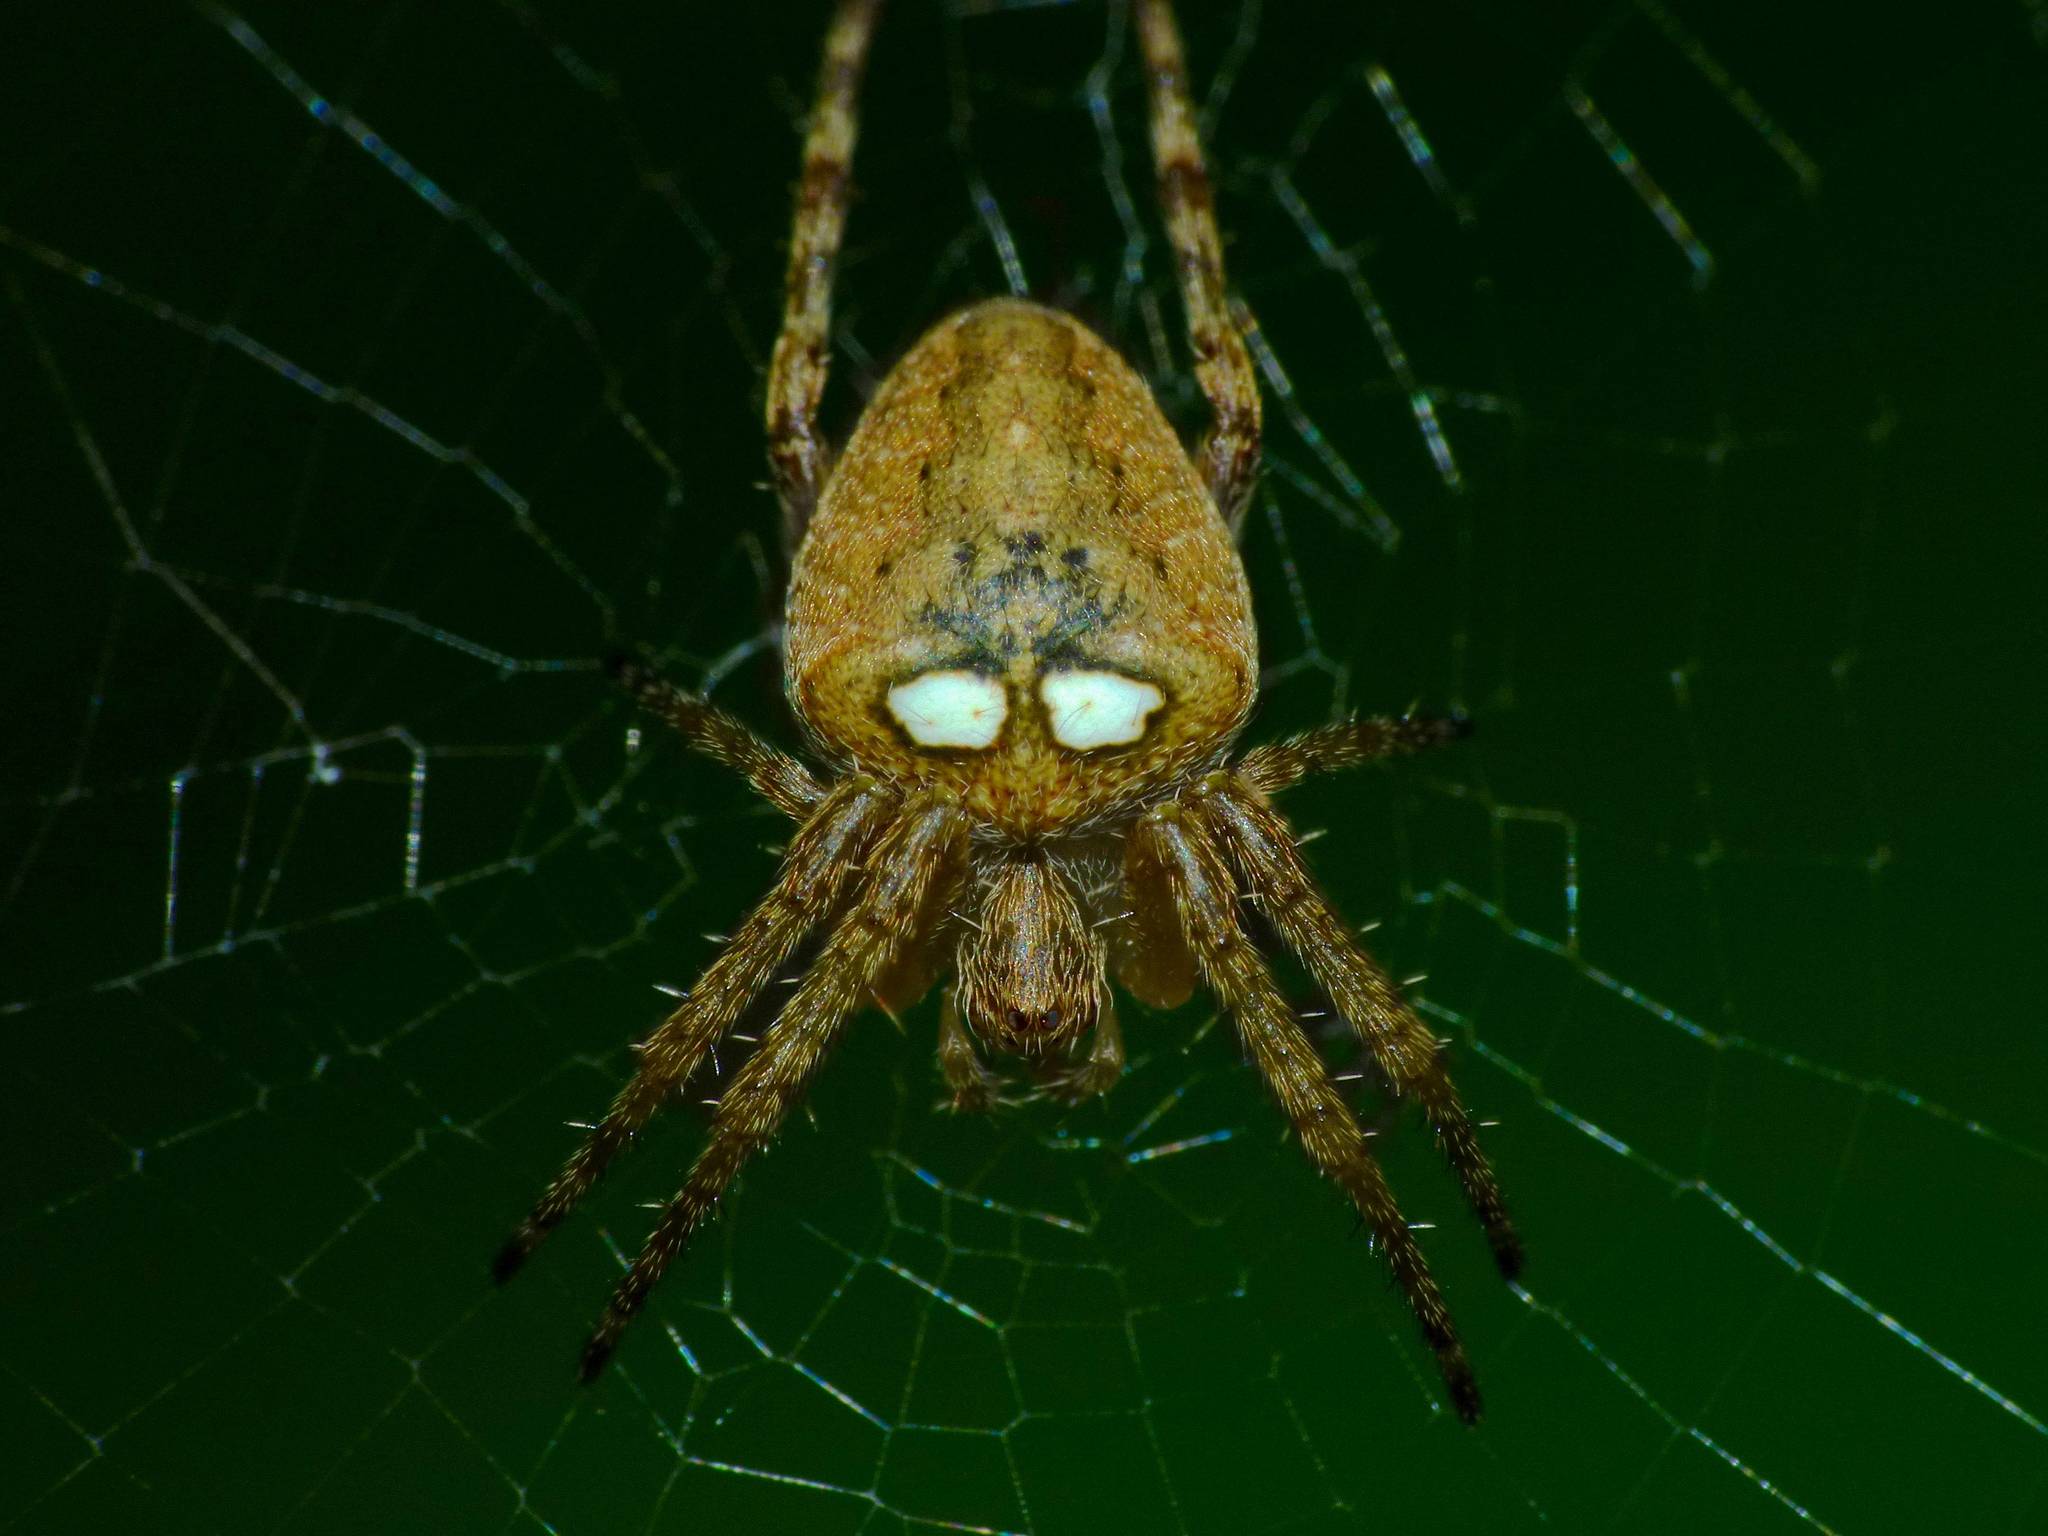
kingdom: Animalia
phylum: Arthropoda
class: Arachnida
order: Araneae
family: Araneidae
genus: Zealaranea
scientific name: Zealaranea crassa
